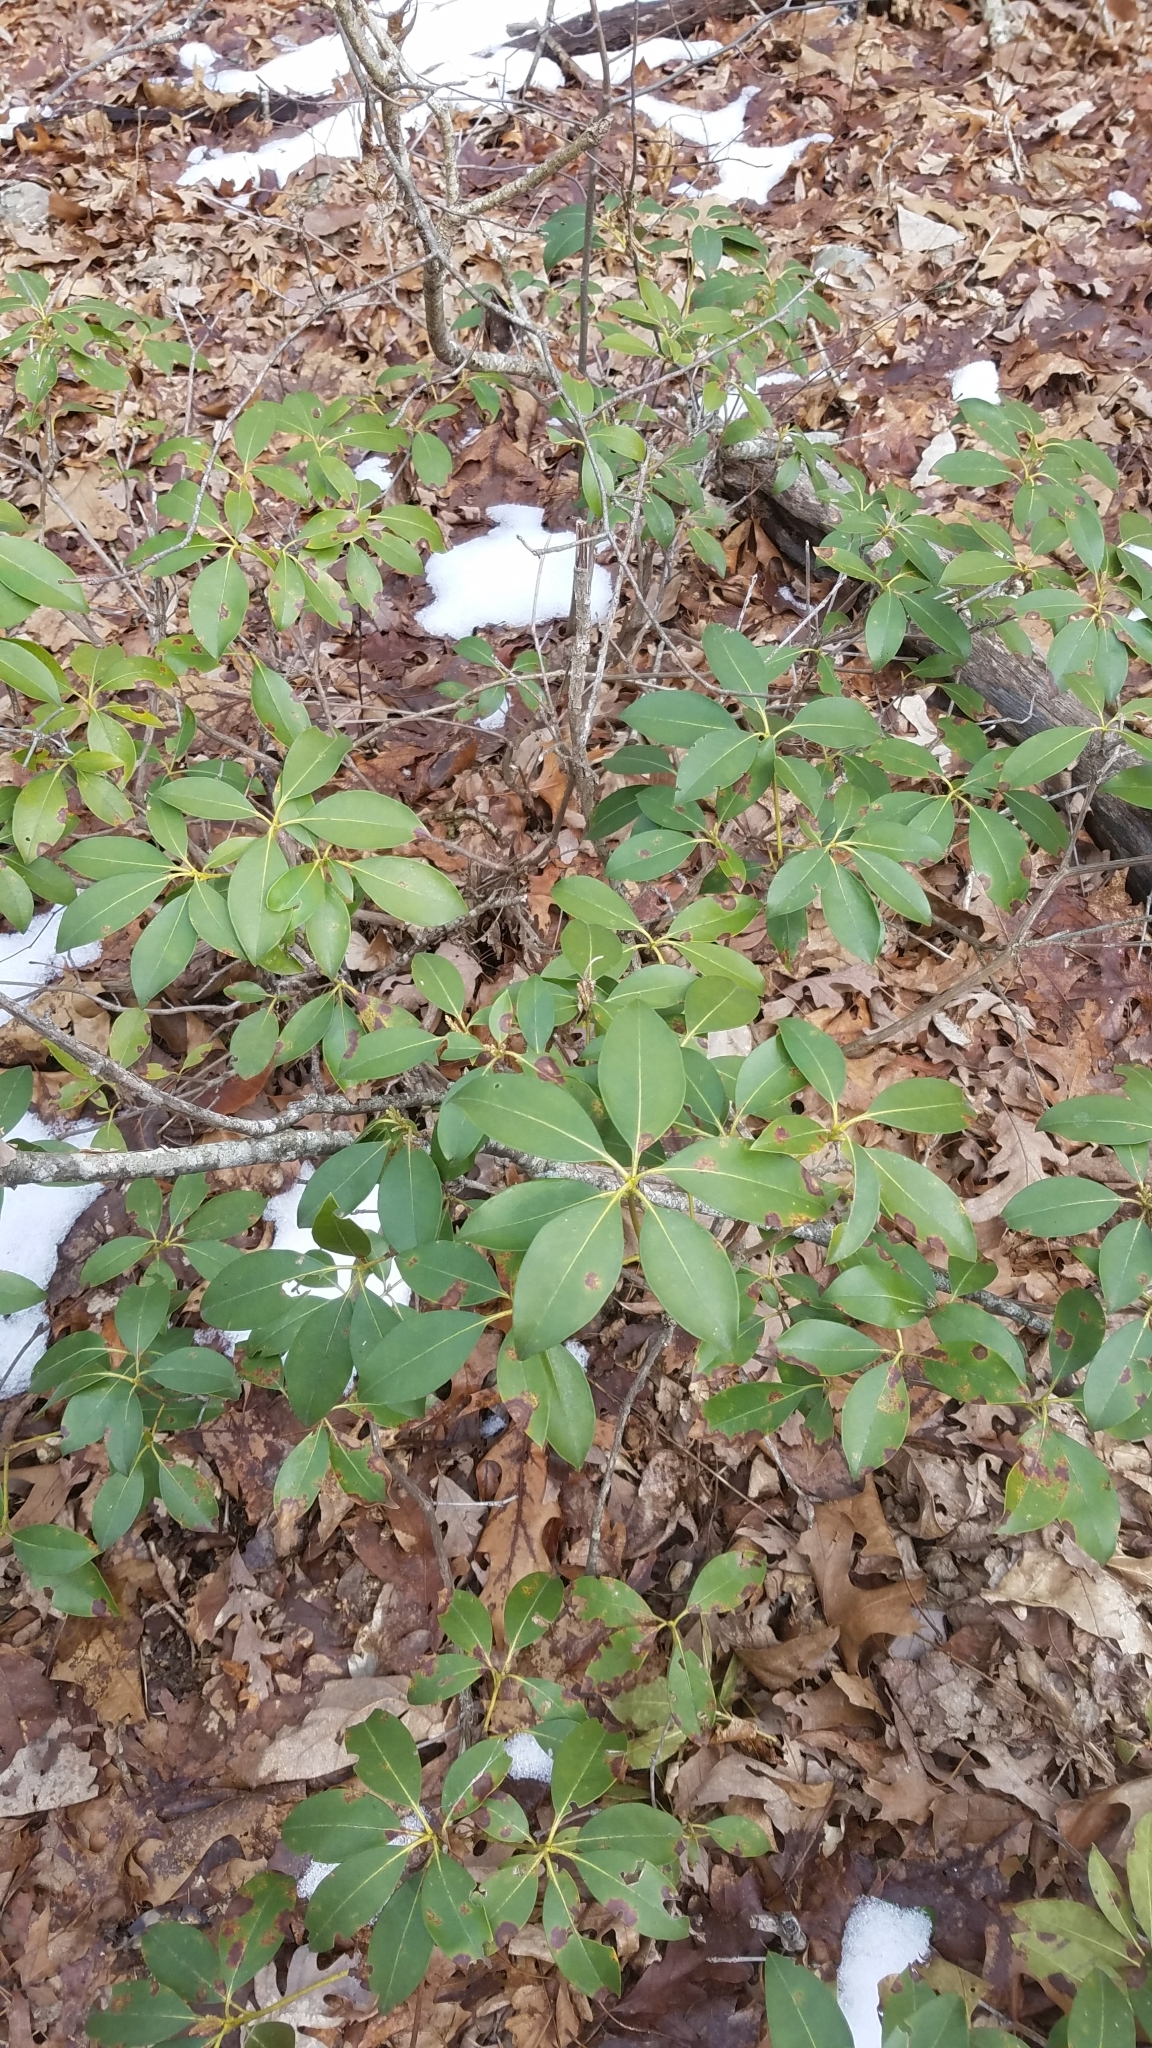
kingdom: Plantae
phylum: Tracheophyta
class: Magnoliopsida
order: Ericales
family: Ericaceae
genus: Kalmia
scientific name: Kalmia latifolia
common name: Mountain-laurel
